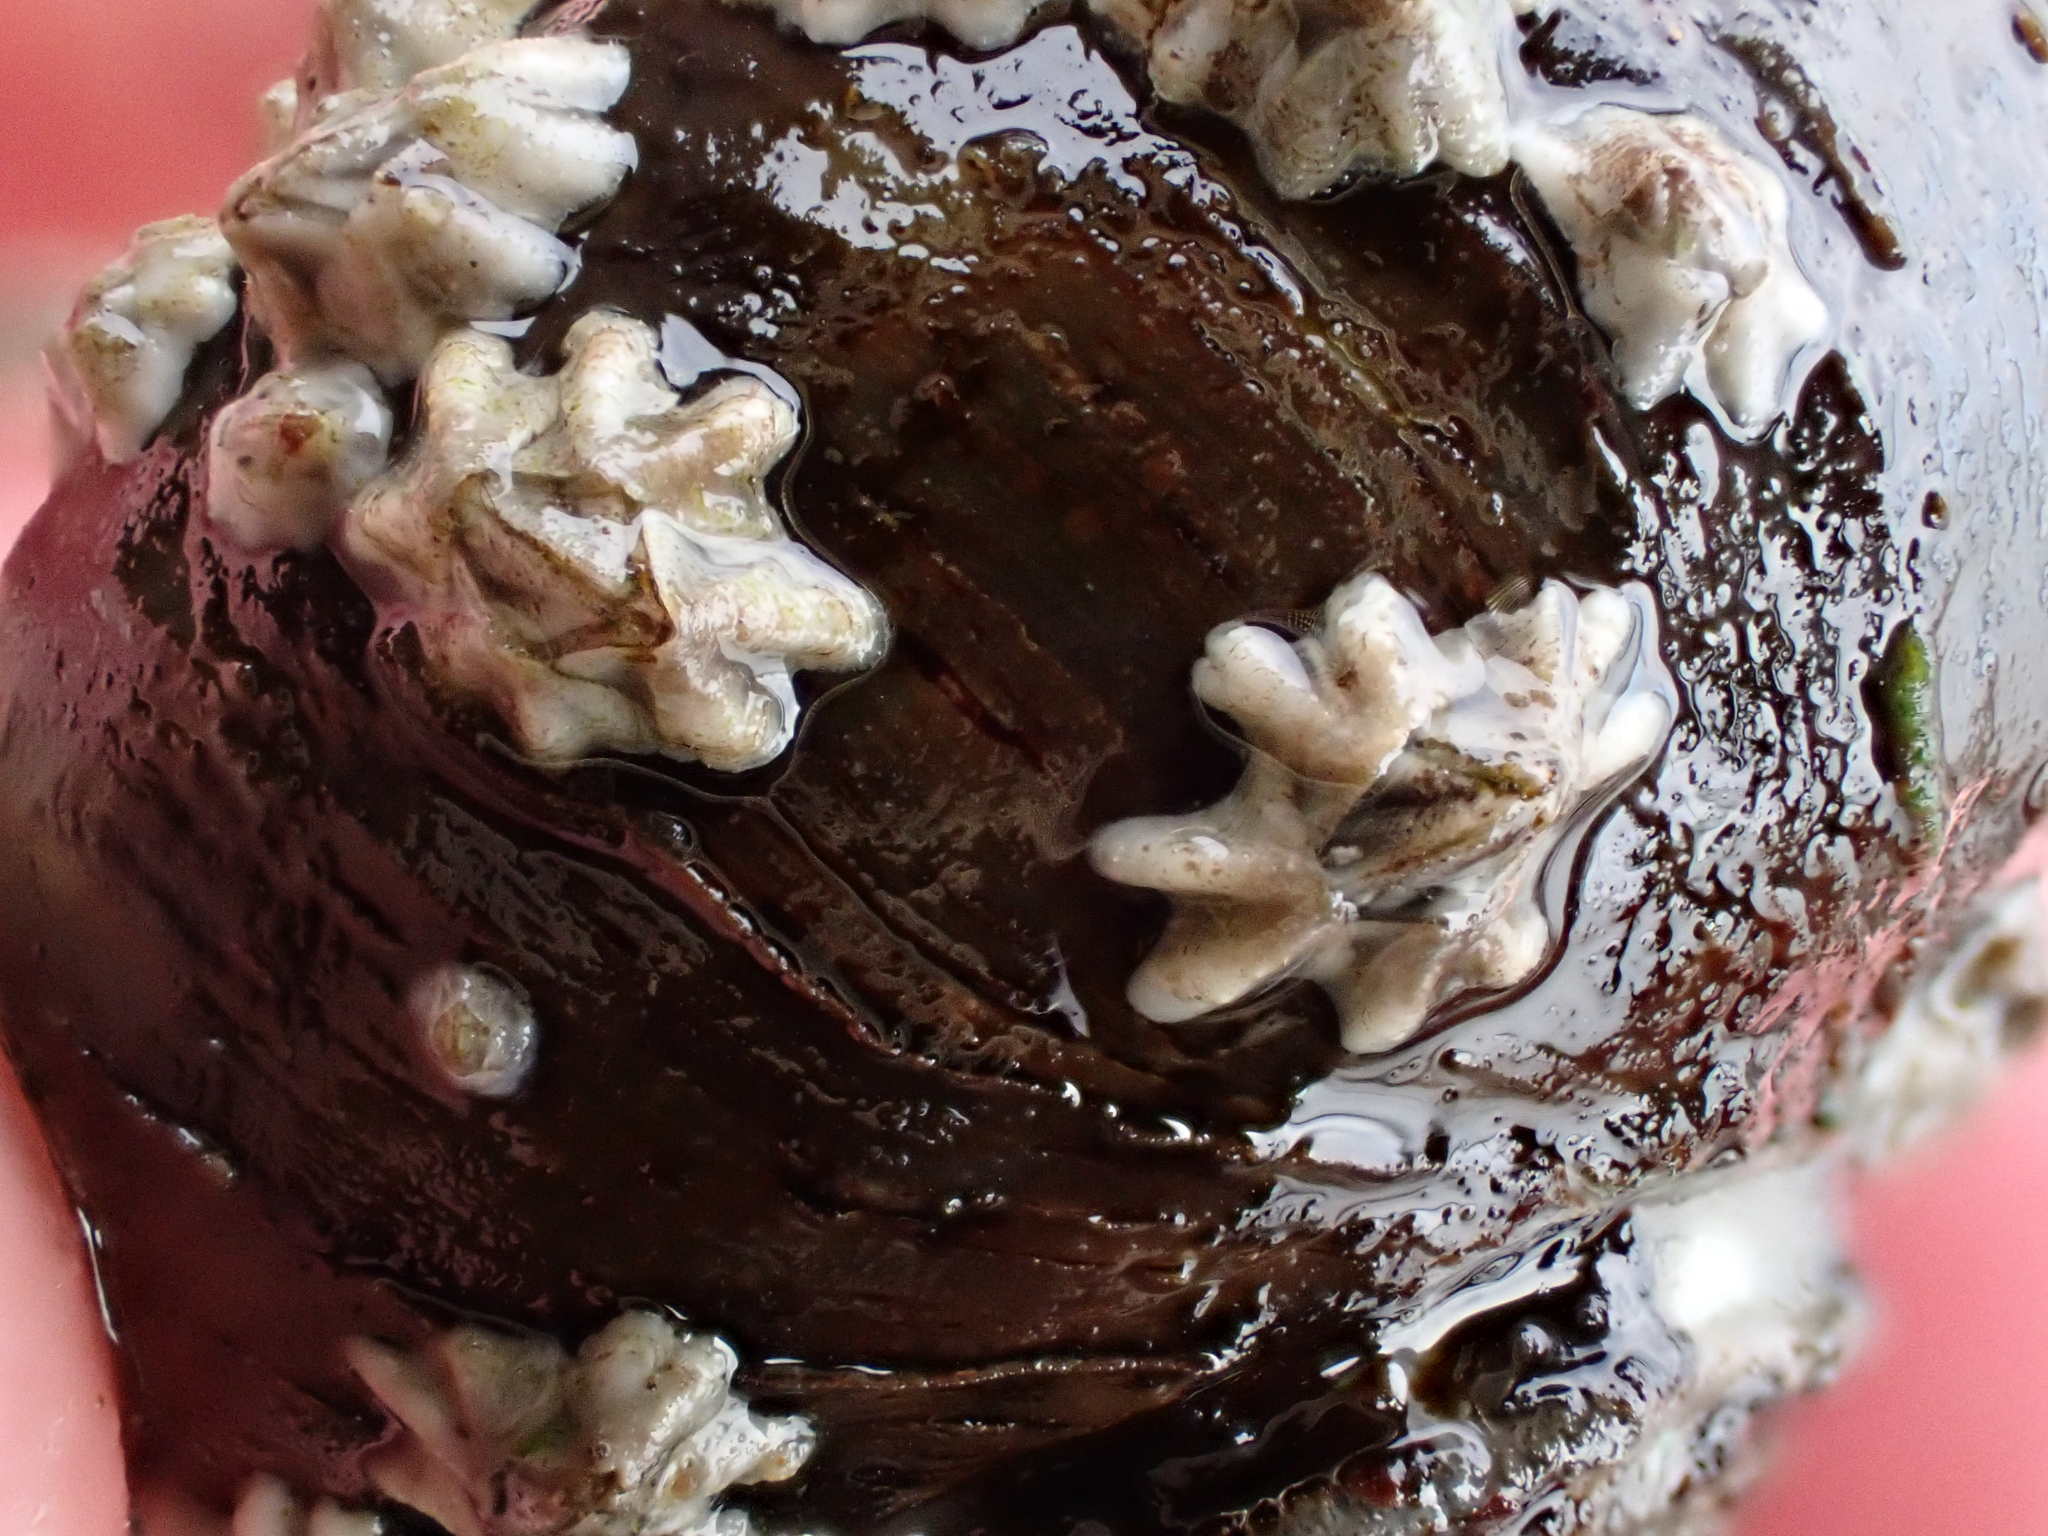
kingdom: Animalia
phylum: Arthropoda
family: Elminiidae
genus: Austrominius
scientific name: Austrominius modestus
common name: Australasian barnacle
